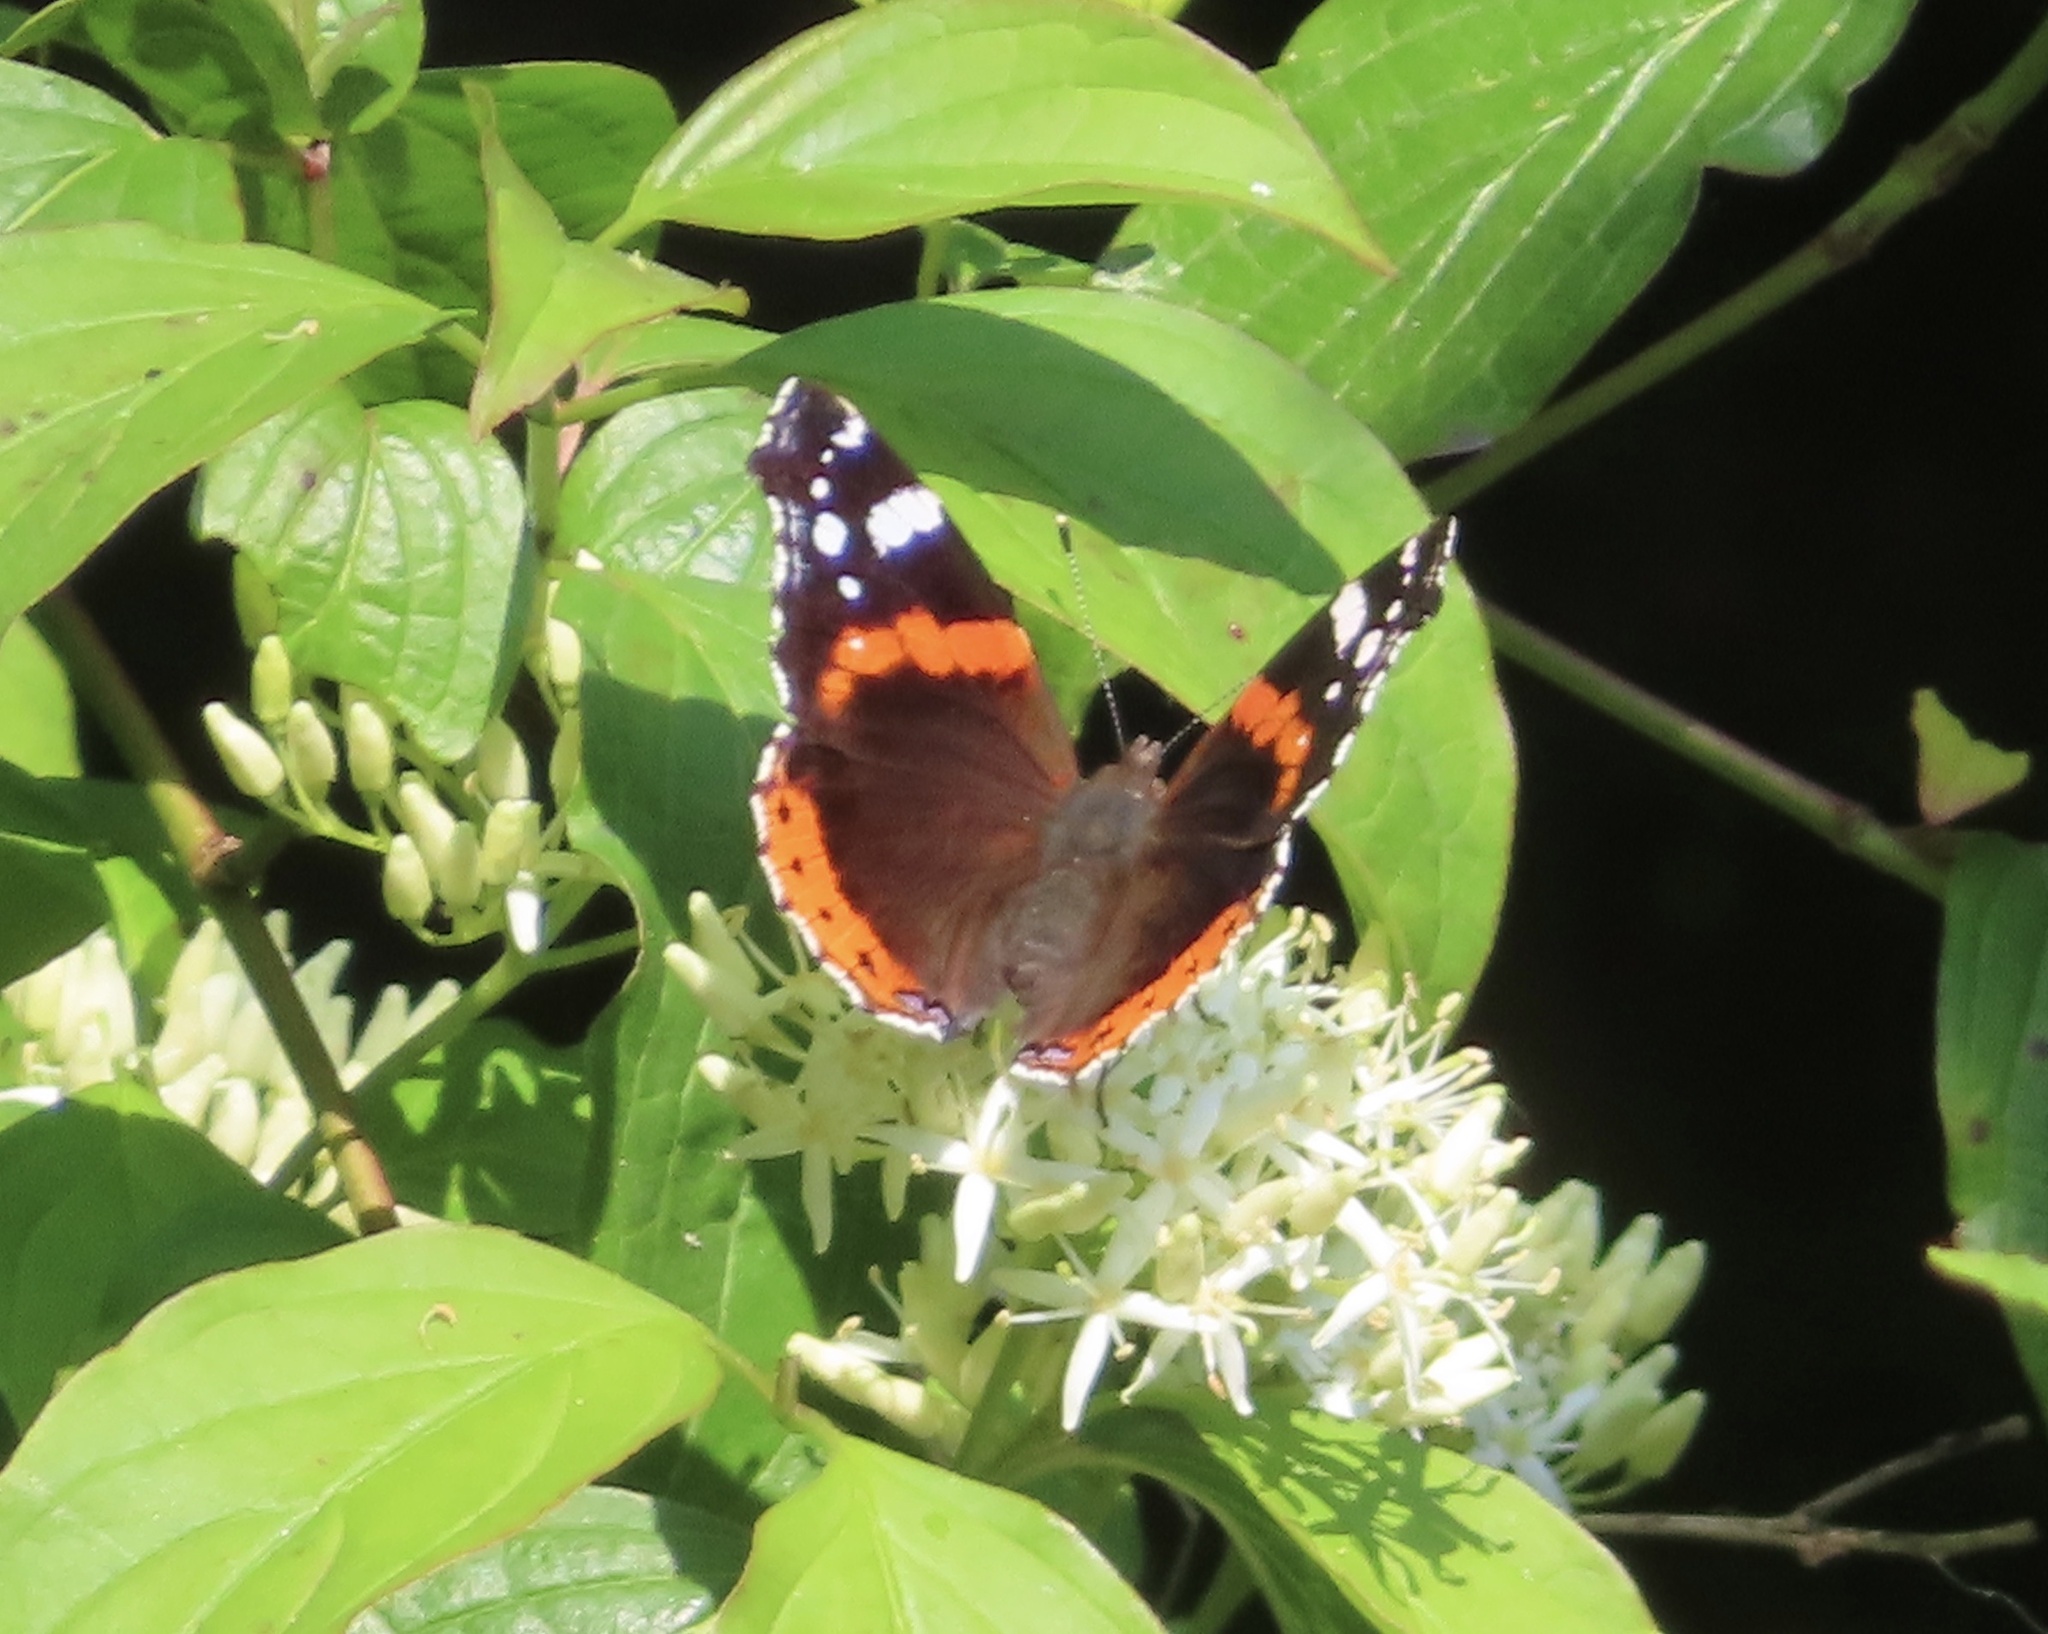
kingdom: Animalia
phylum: Arthropoda
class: Insecta
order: Lepidoptera
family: Nymphalidae
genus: Vanessa
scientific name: Vanessa atalanta
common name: Red admiral
